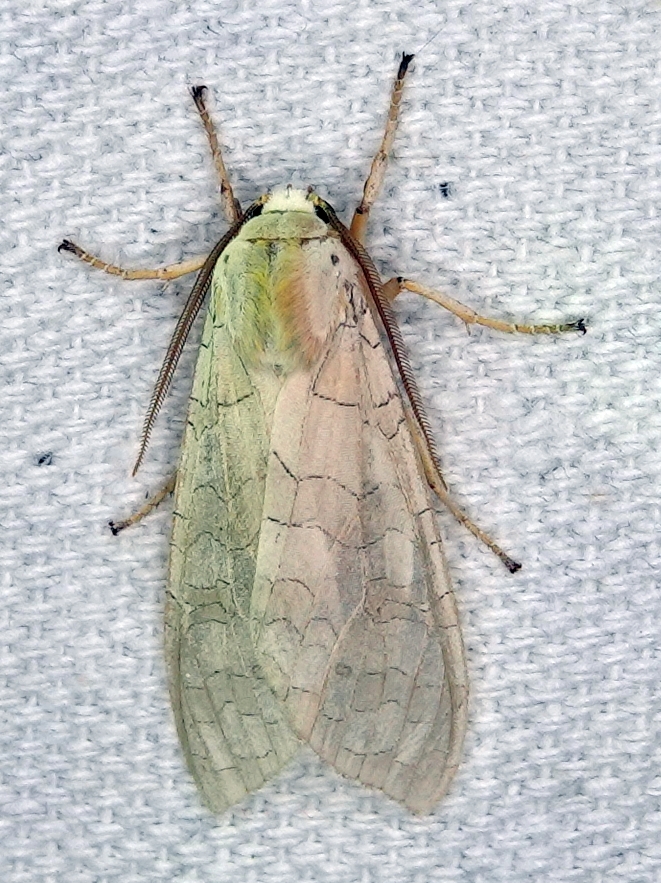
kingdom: Animalia
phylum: Arthropoda
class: Insecta
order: Lepidoptera
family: Erebidae
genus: Halysidota
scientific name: Halysidota tessellaris
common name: Banded tussock moth
